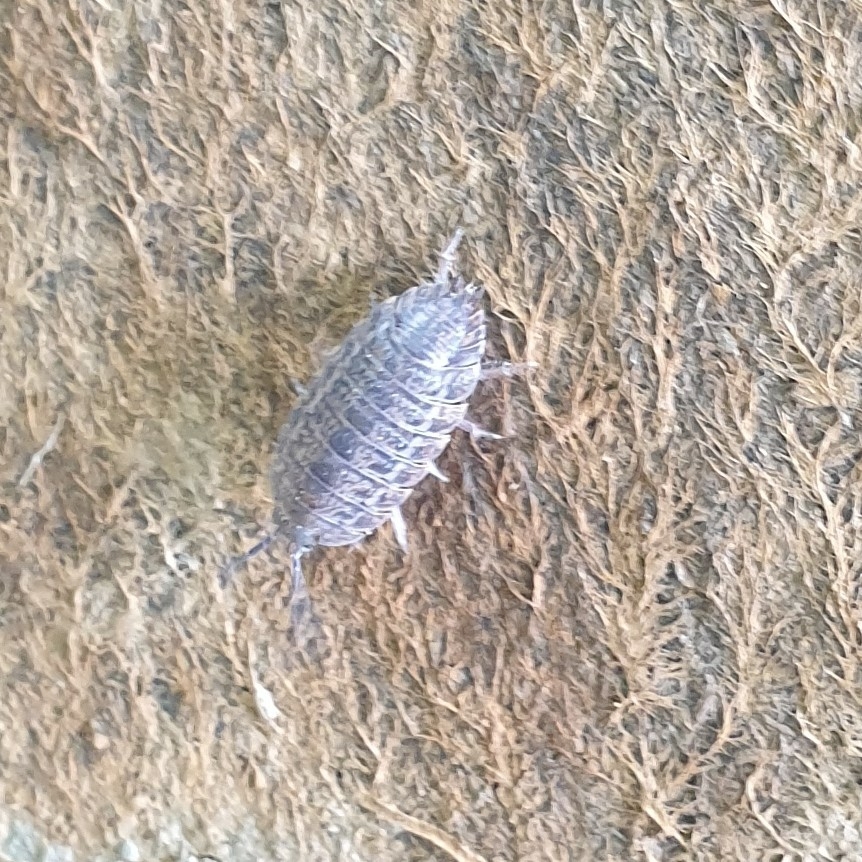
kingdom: Animalia
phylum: Arthropoda
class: Malacostraca
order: Isopoda
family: Trachelipodidae
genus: Trachelipus
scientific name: Trachelipus rathkii
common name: Isopod
